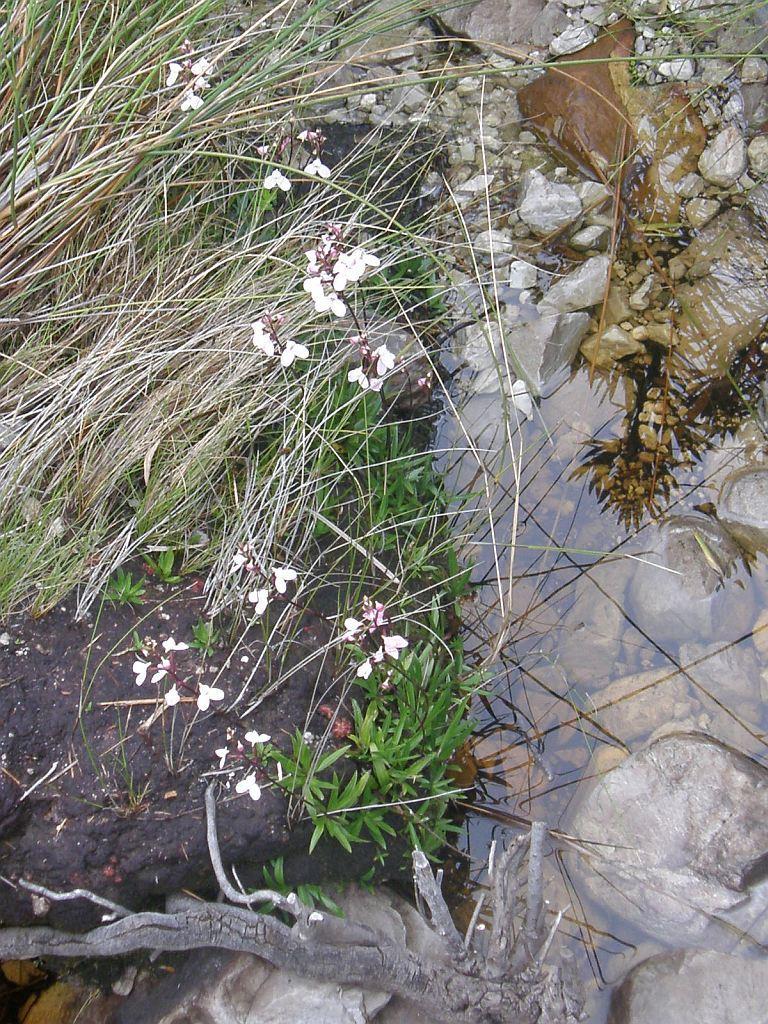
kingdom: Plantae
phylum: Tracheophyta
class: Liliopsida
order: Asparagales
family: Orchidaceae
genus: Disa
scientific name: Disa tripetaloides
